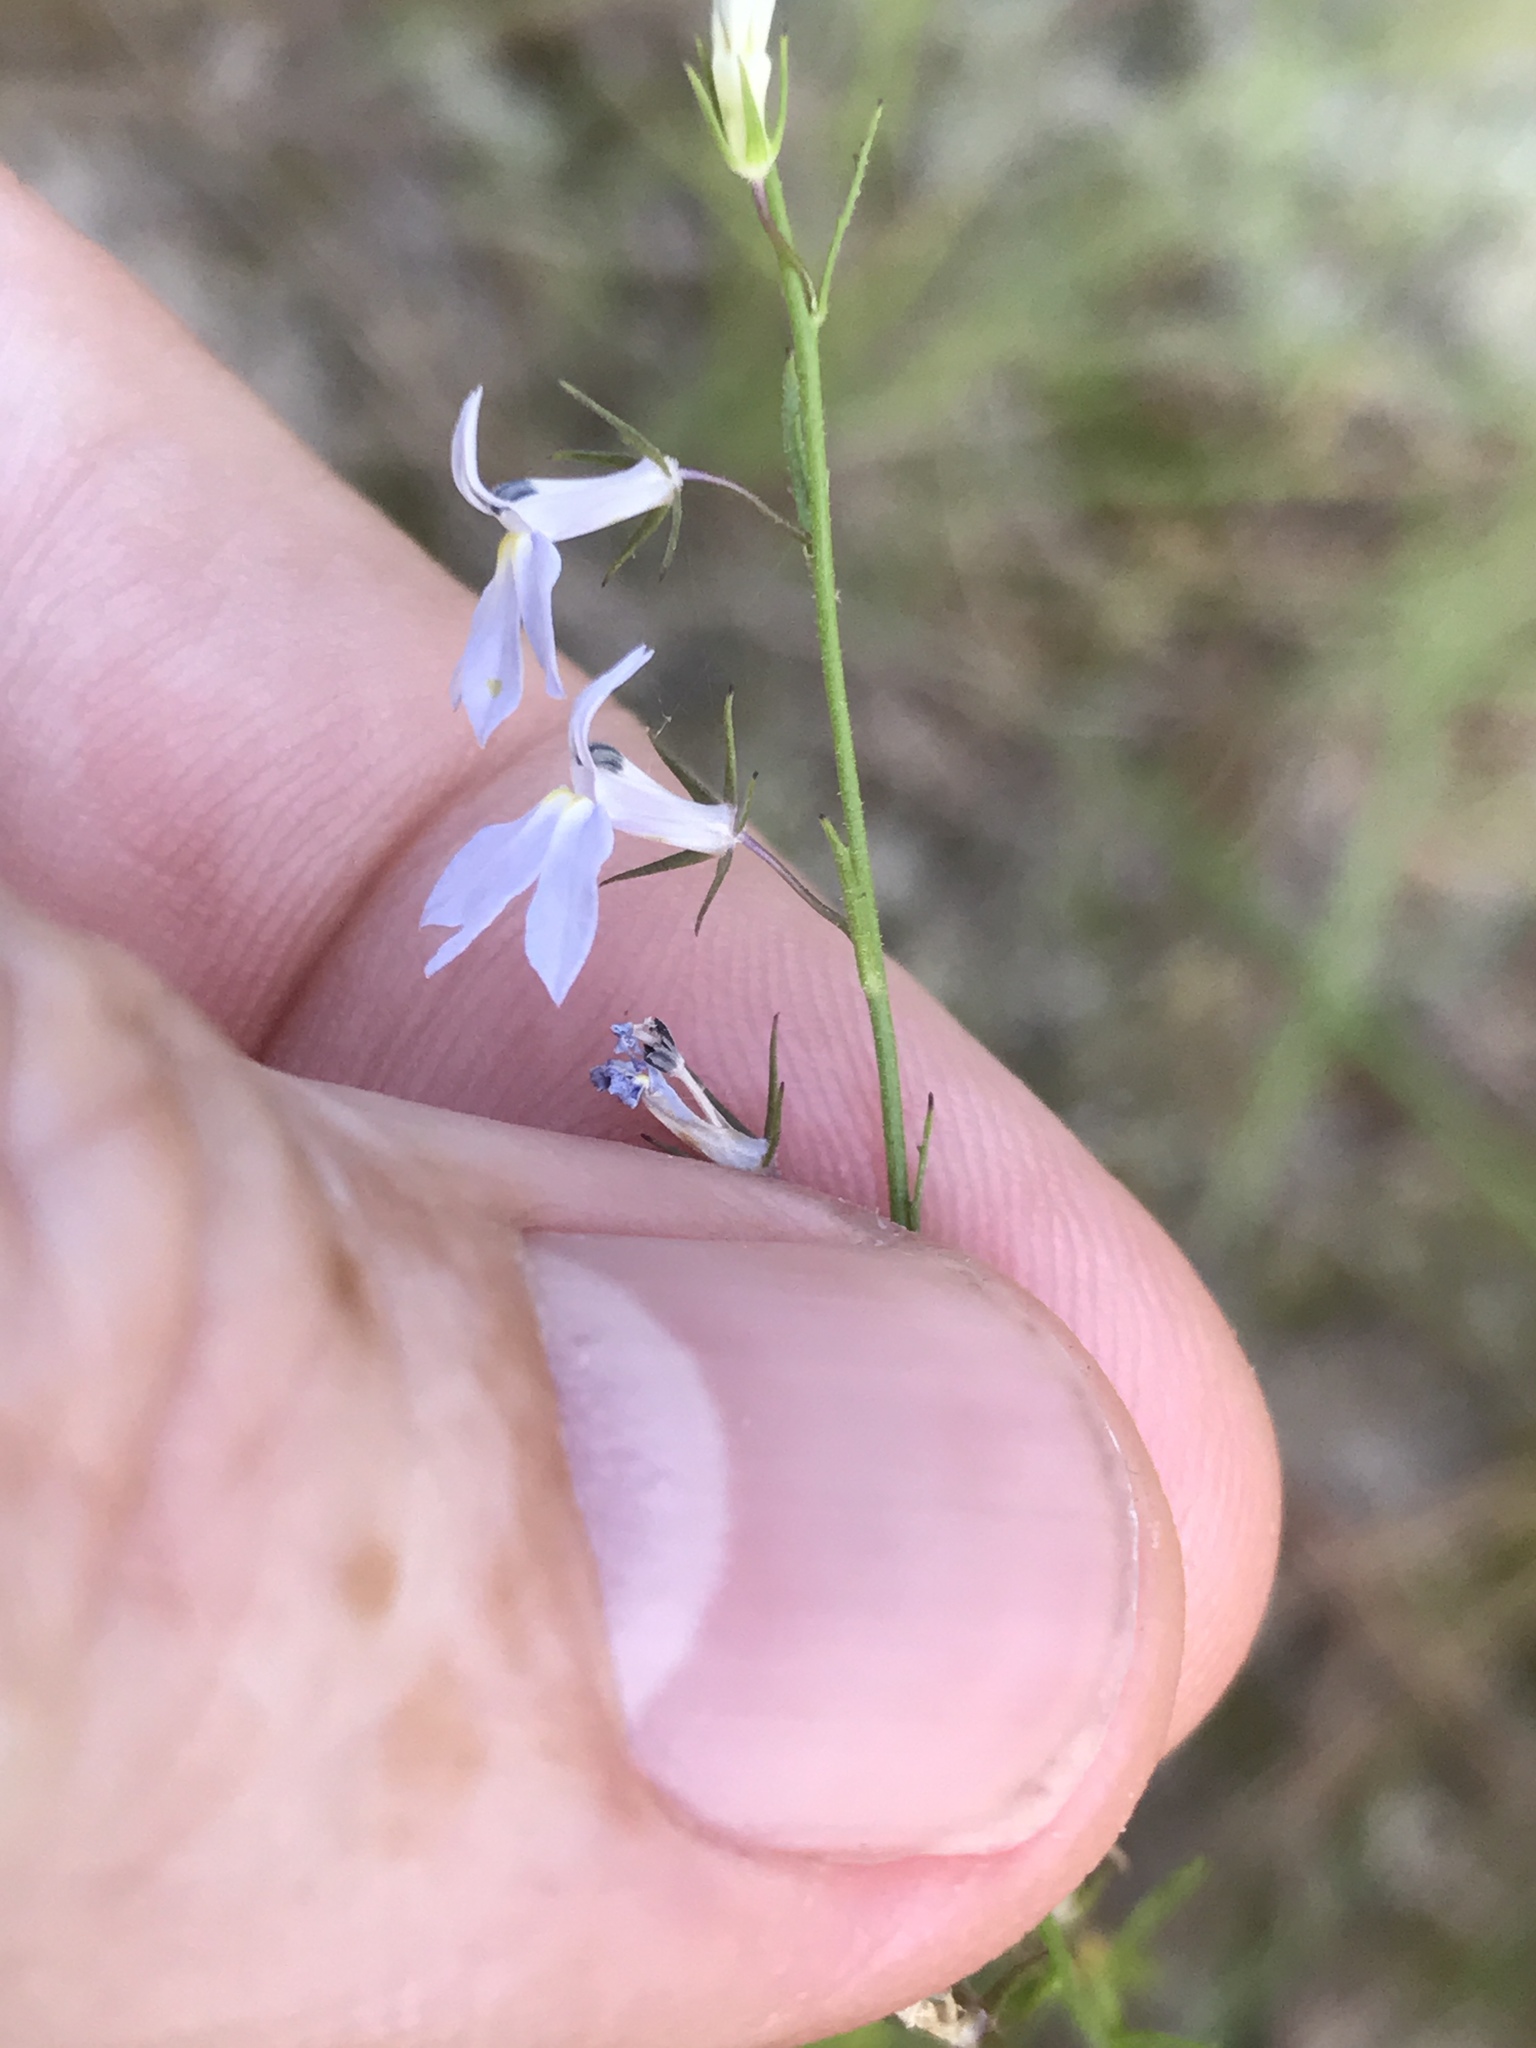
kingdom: Plantae
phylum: Tracheophyta
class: Magnoliopsida
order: Asterales
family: Campanulaceae
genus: Lobelia
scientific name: Lobelia nuttallii
